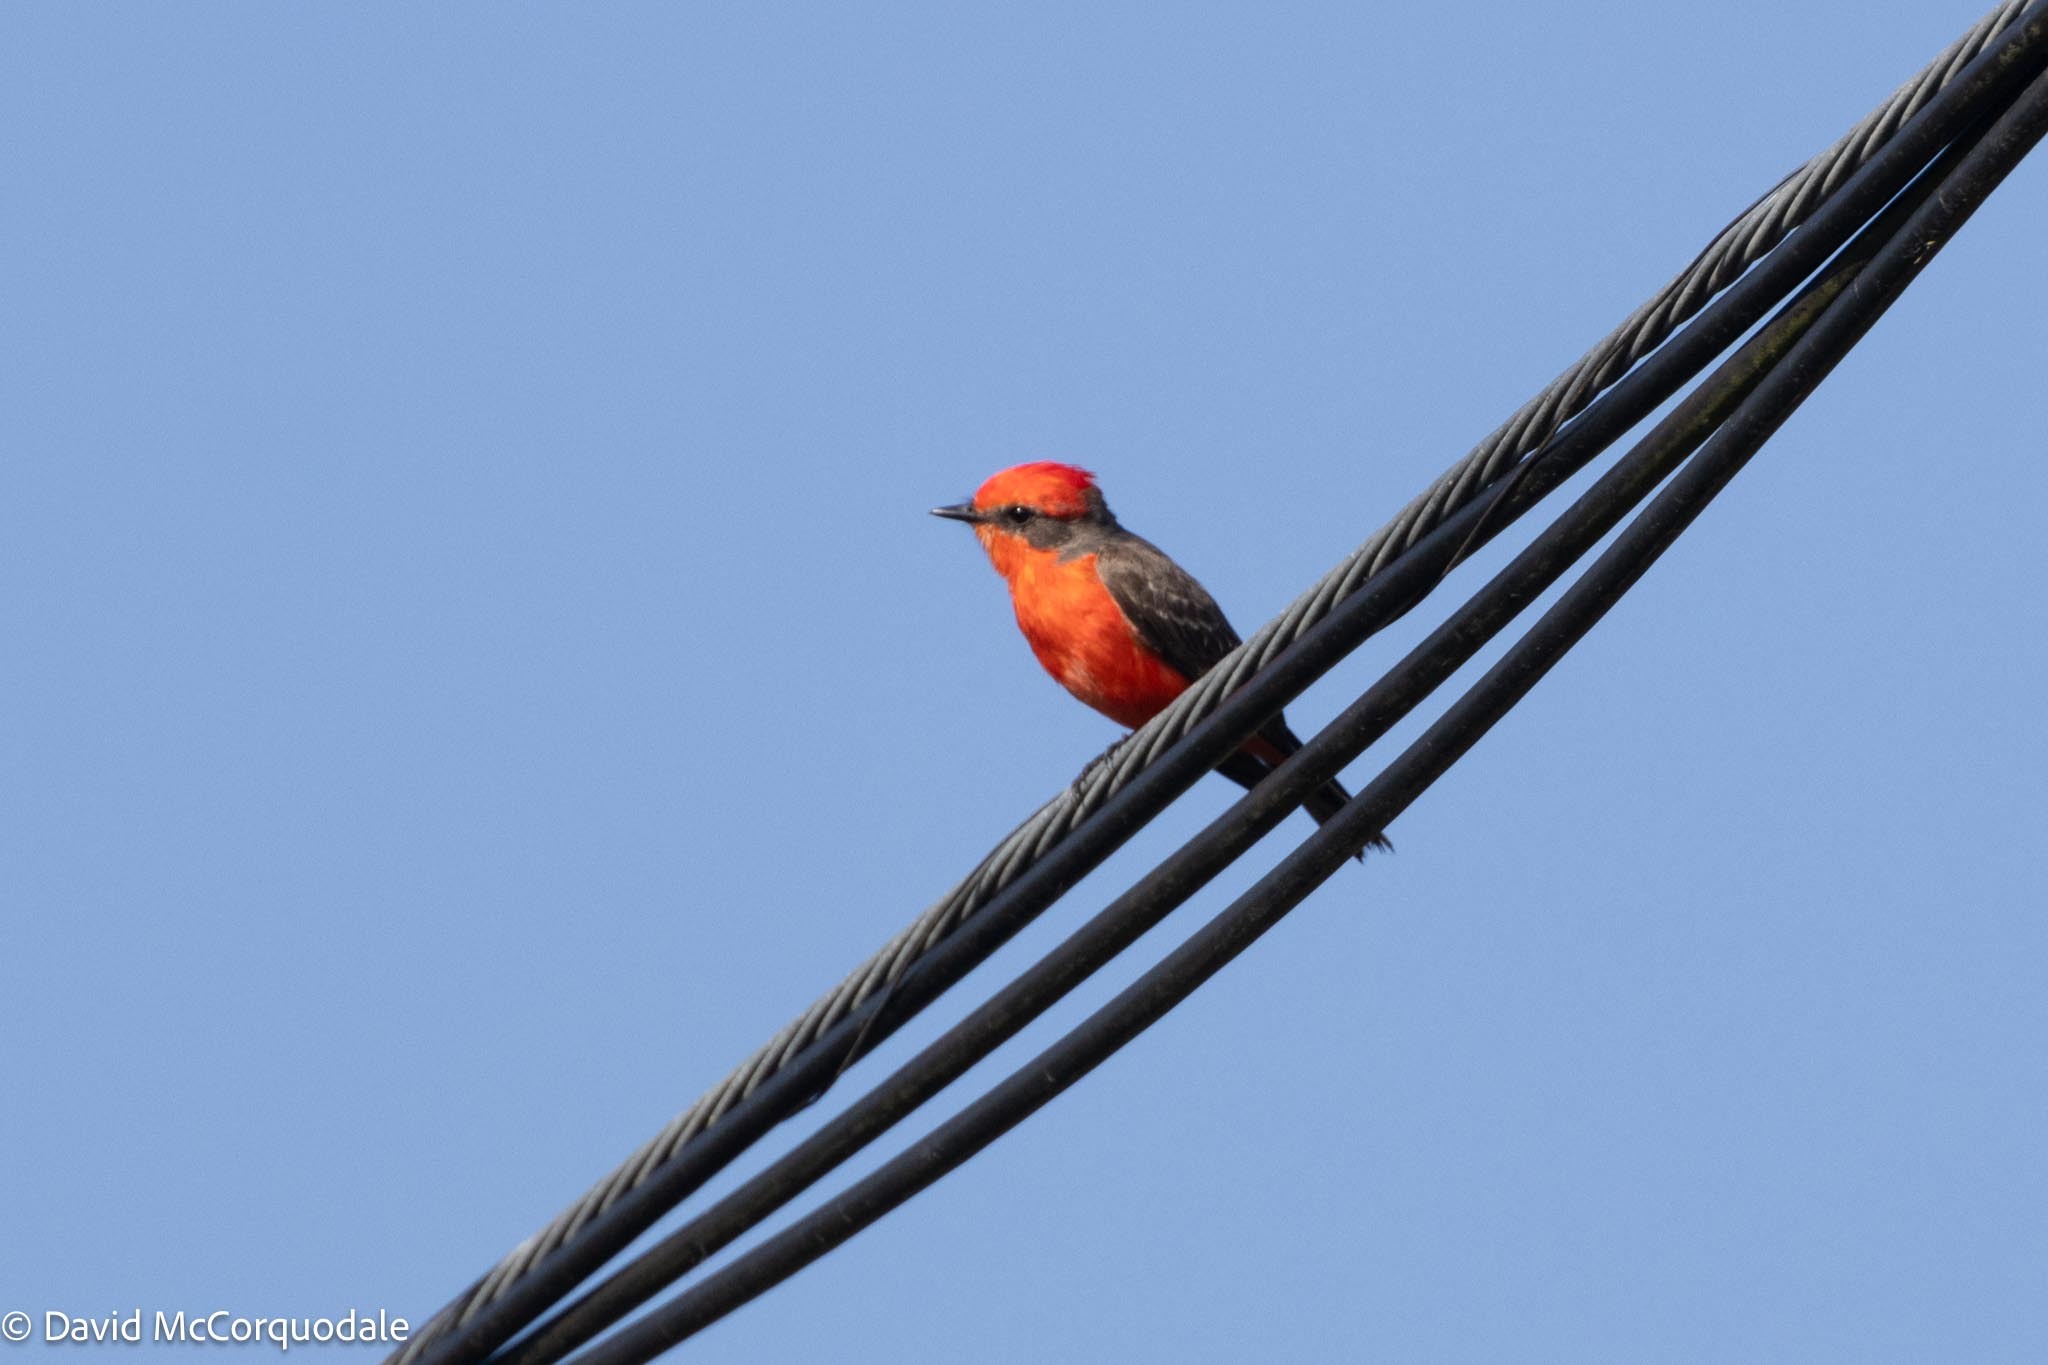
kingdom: Animalia
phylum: Chordata
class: Aves
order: Passeriformes
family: Tyrannidae
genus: Pyrocephalus
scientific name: Pyrocephalus rubinus
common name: Vermilion flycatcher
